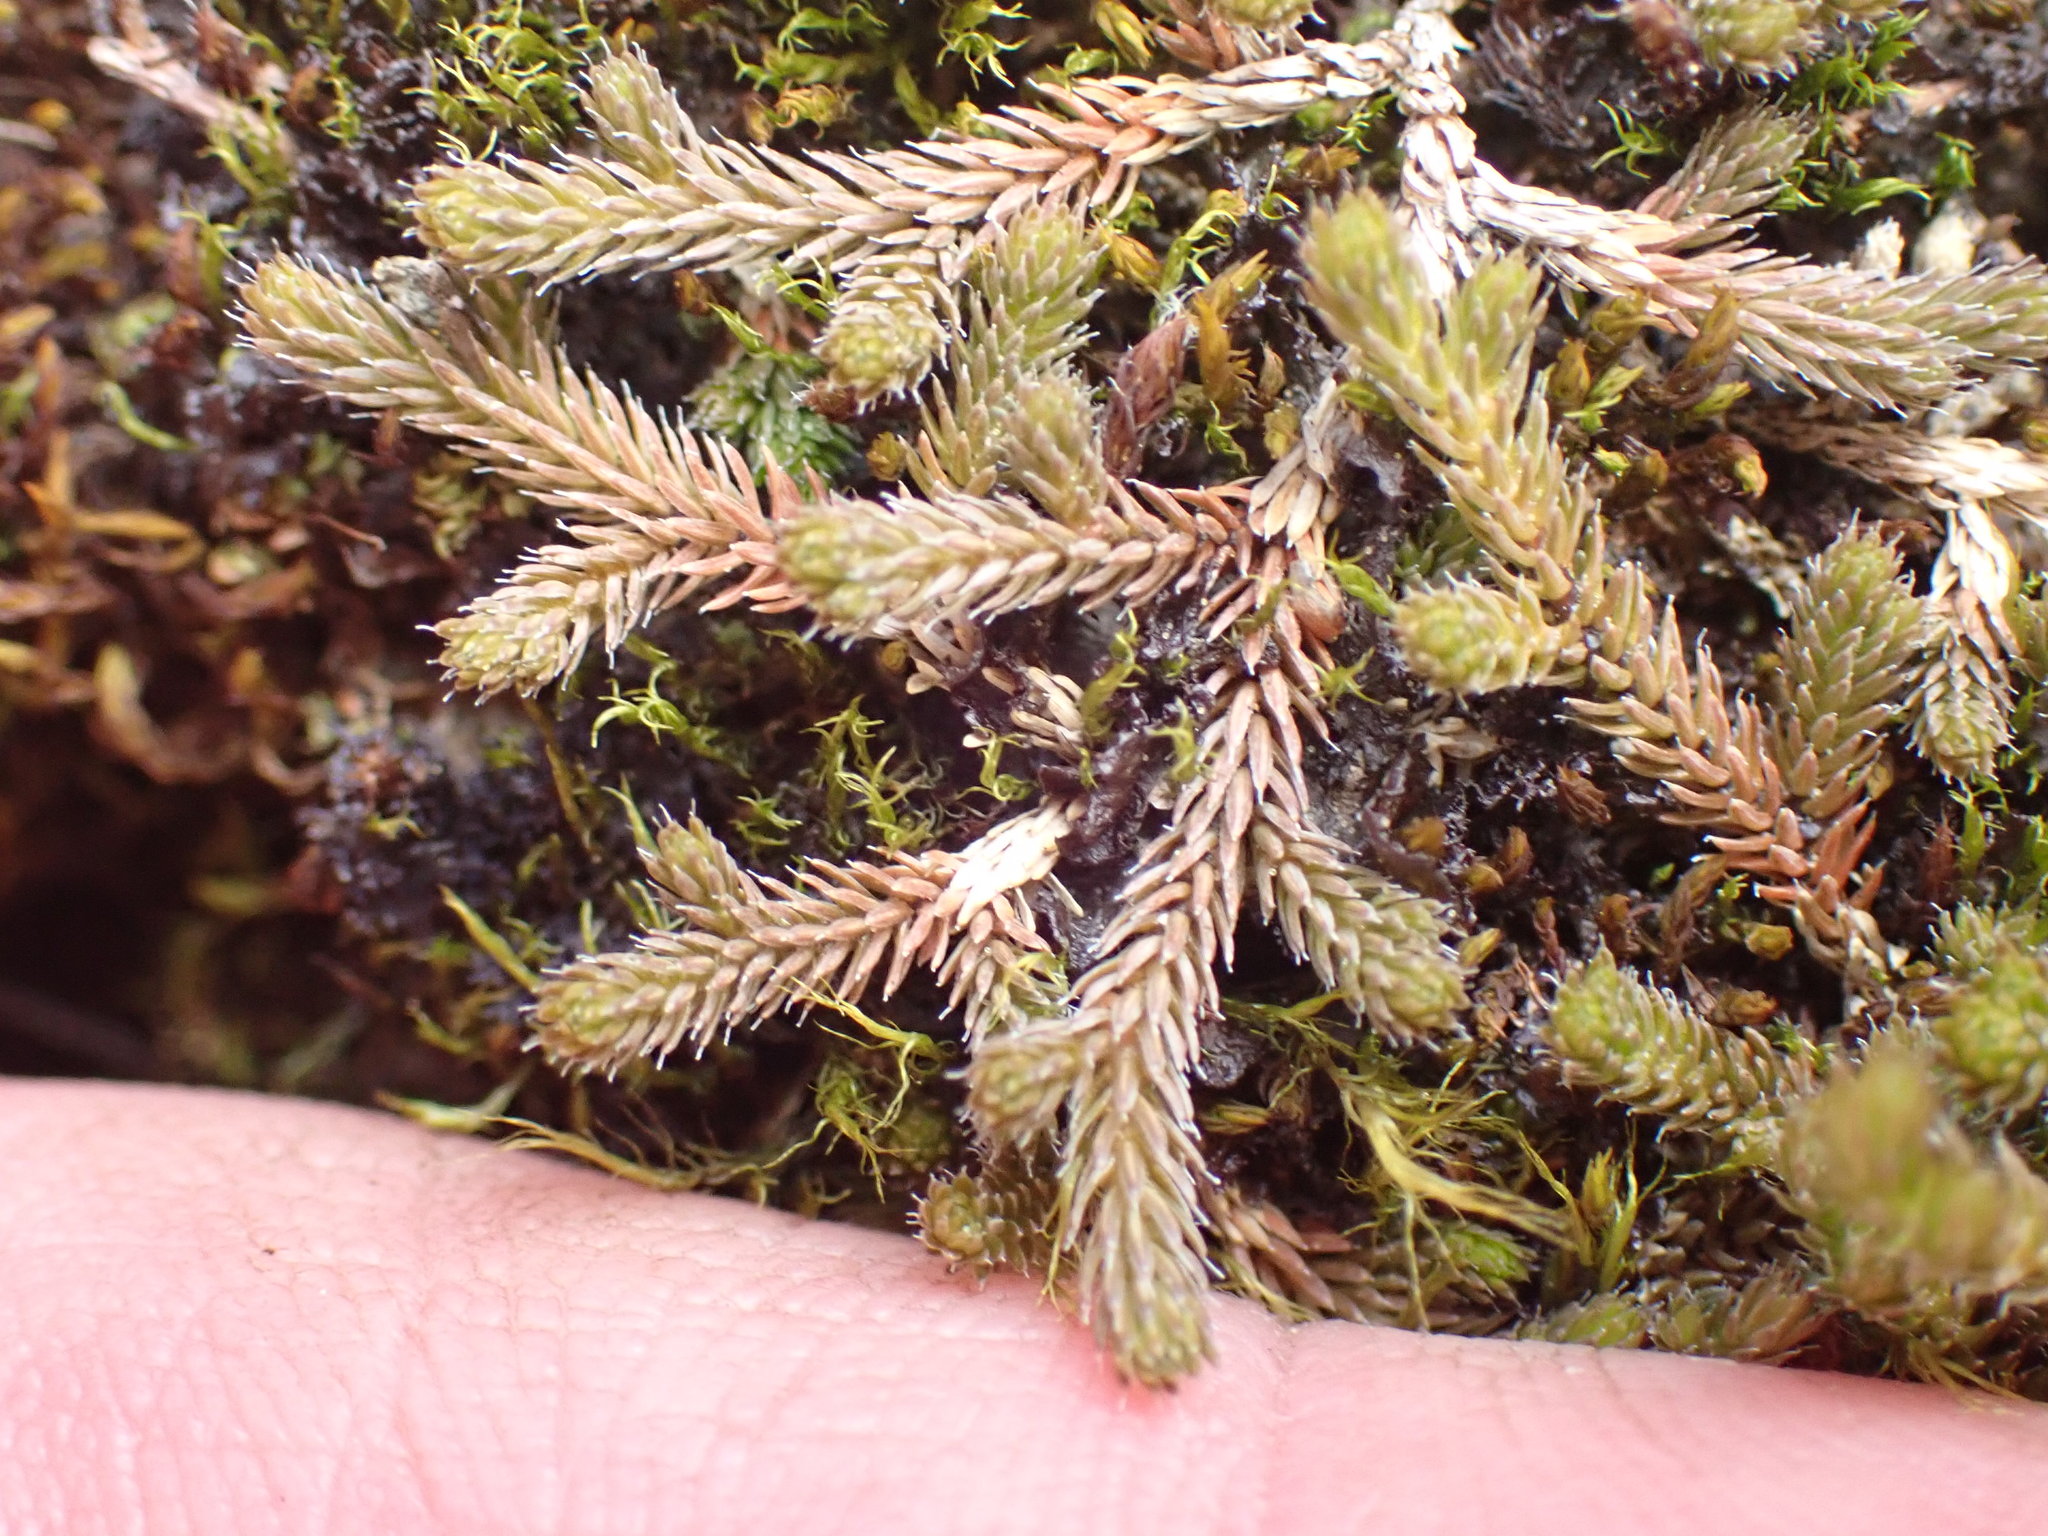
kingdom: Plantae
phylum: Tracheophyta
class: Lycopodiopsida
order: Selaginellales
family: Selaginellaceae
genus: Selaginella
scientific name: Selaginella wallacei
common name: Wallace's selaginella
